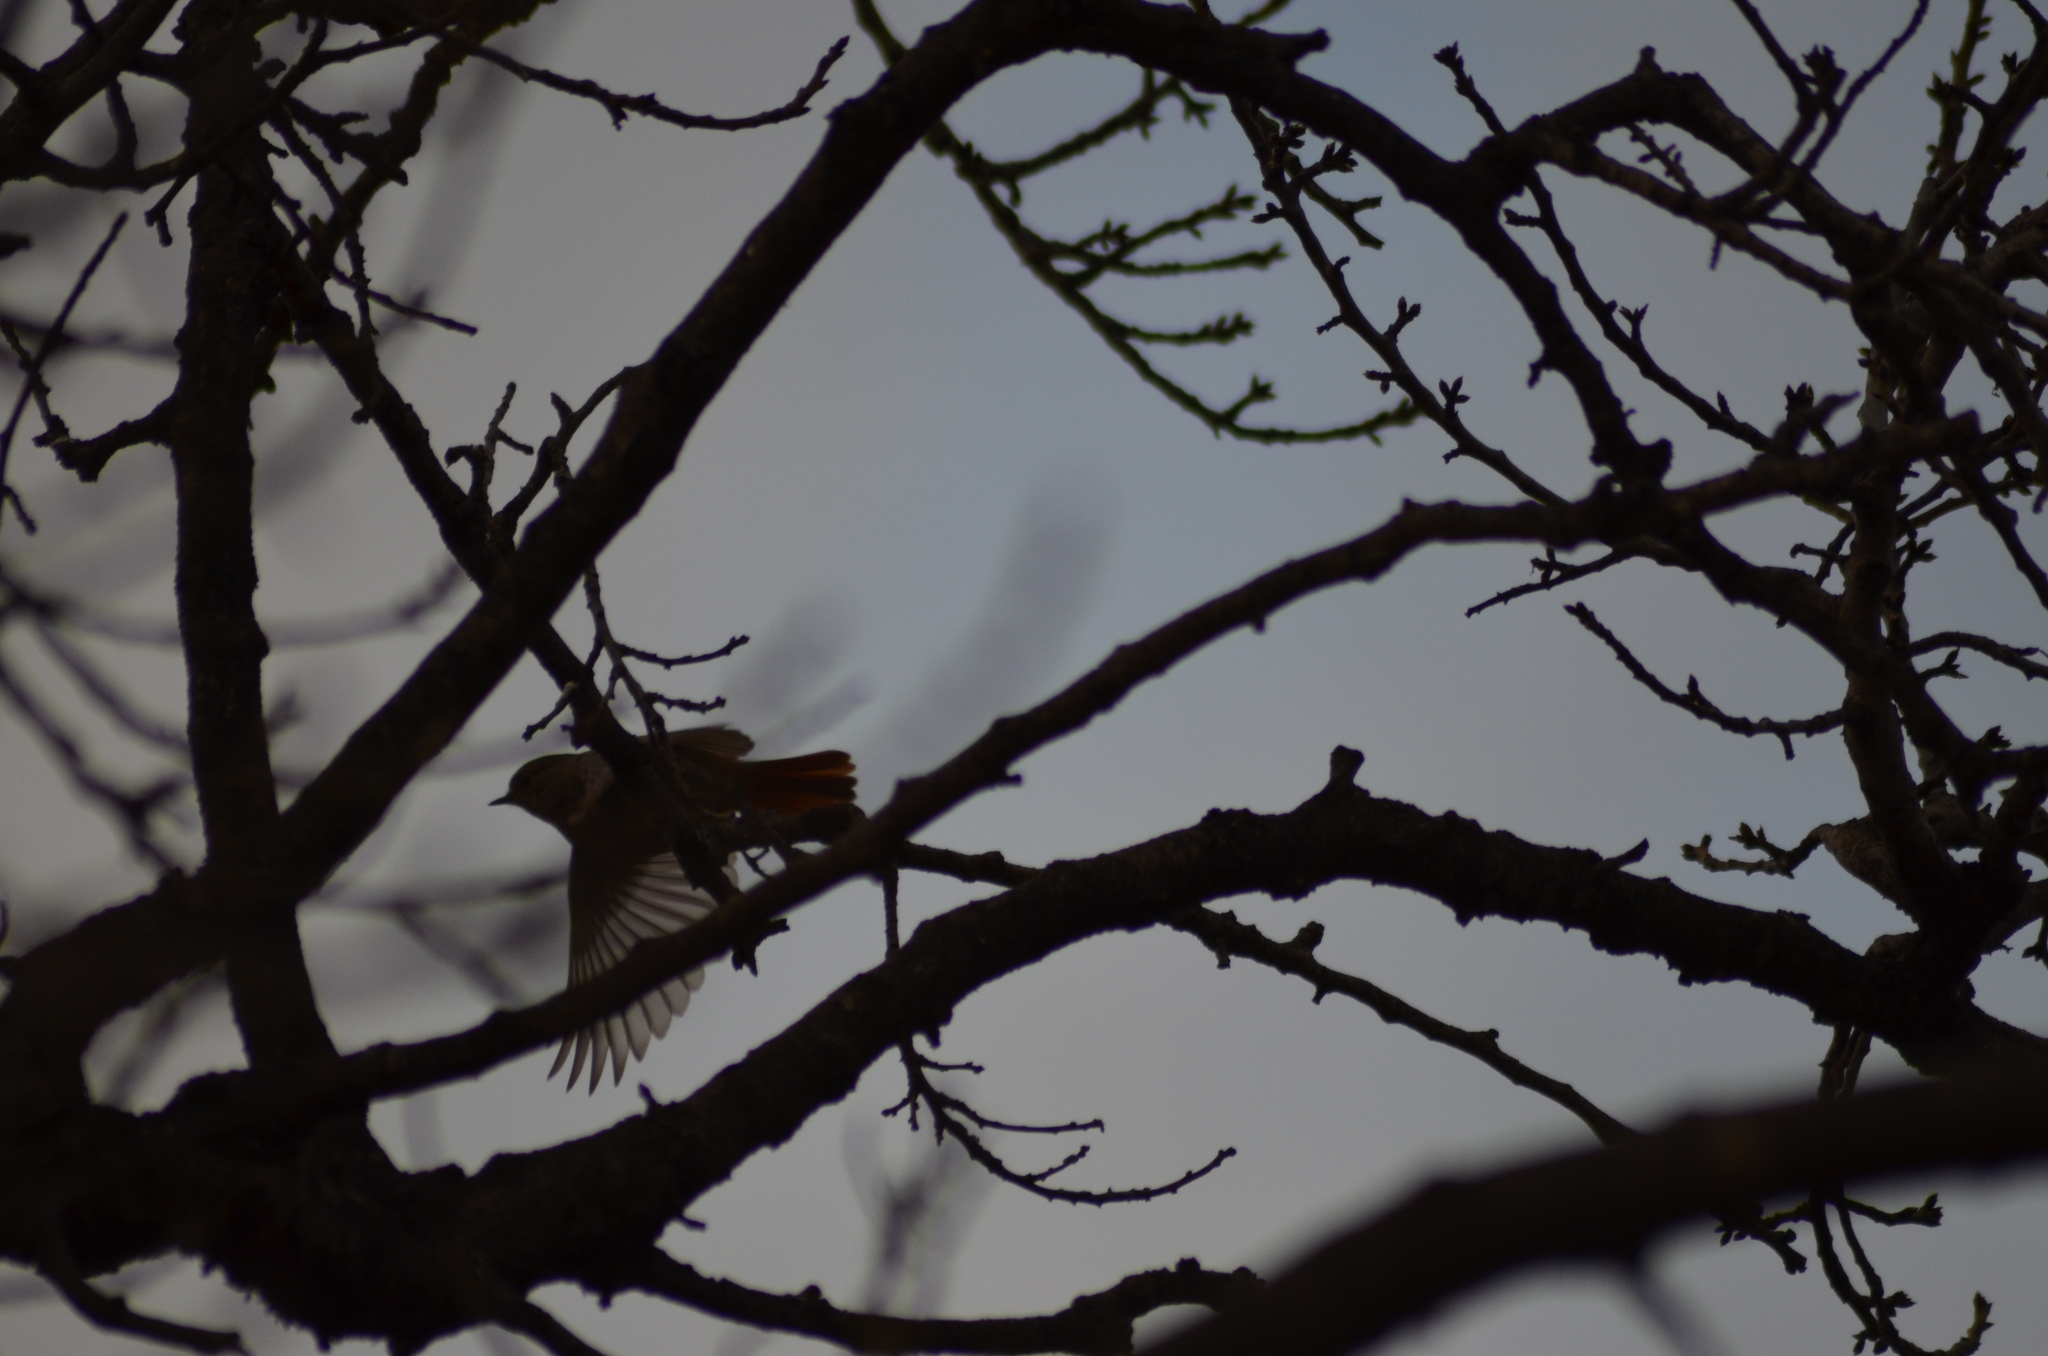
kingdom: Animalia
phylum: Chordata
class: Aves
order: Passeriformes
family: Muscicapidae
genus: Phoenicurus
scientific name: Phoenicurus ochruros
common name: Black redstart
